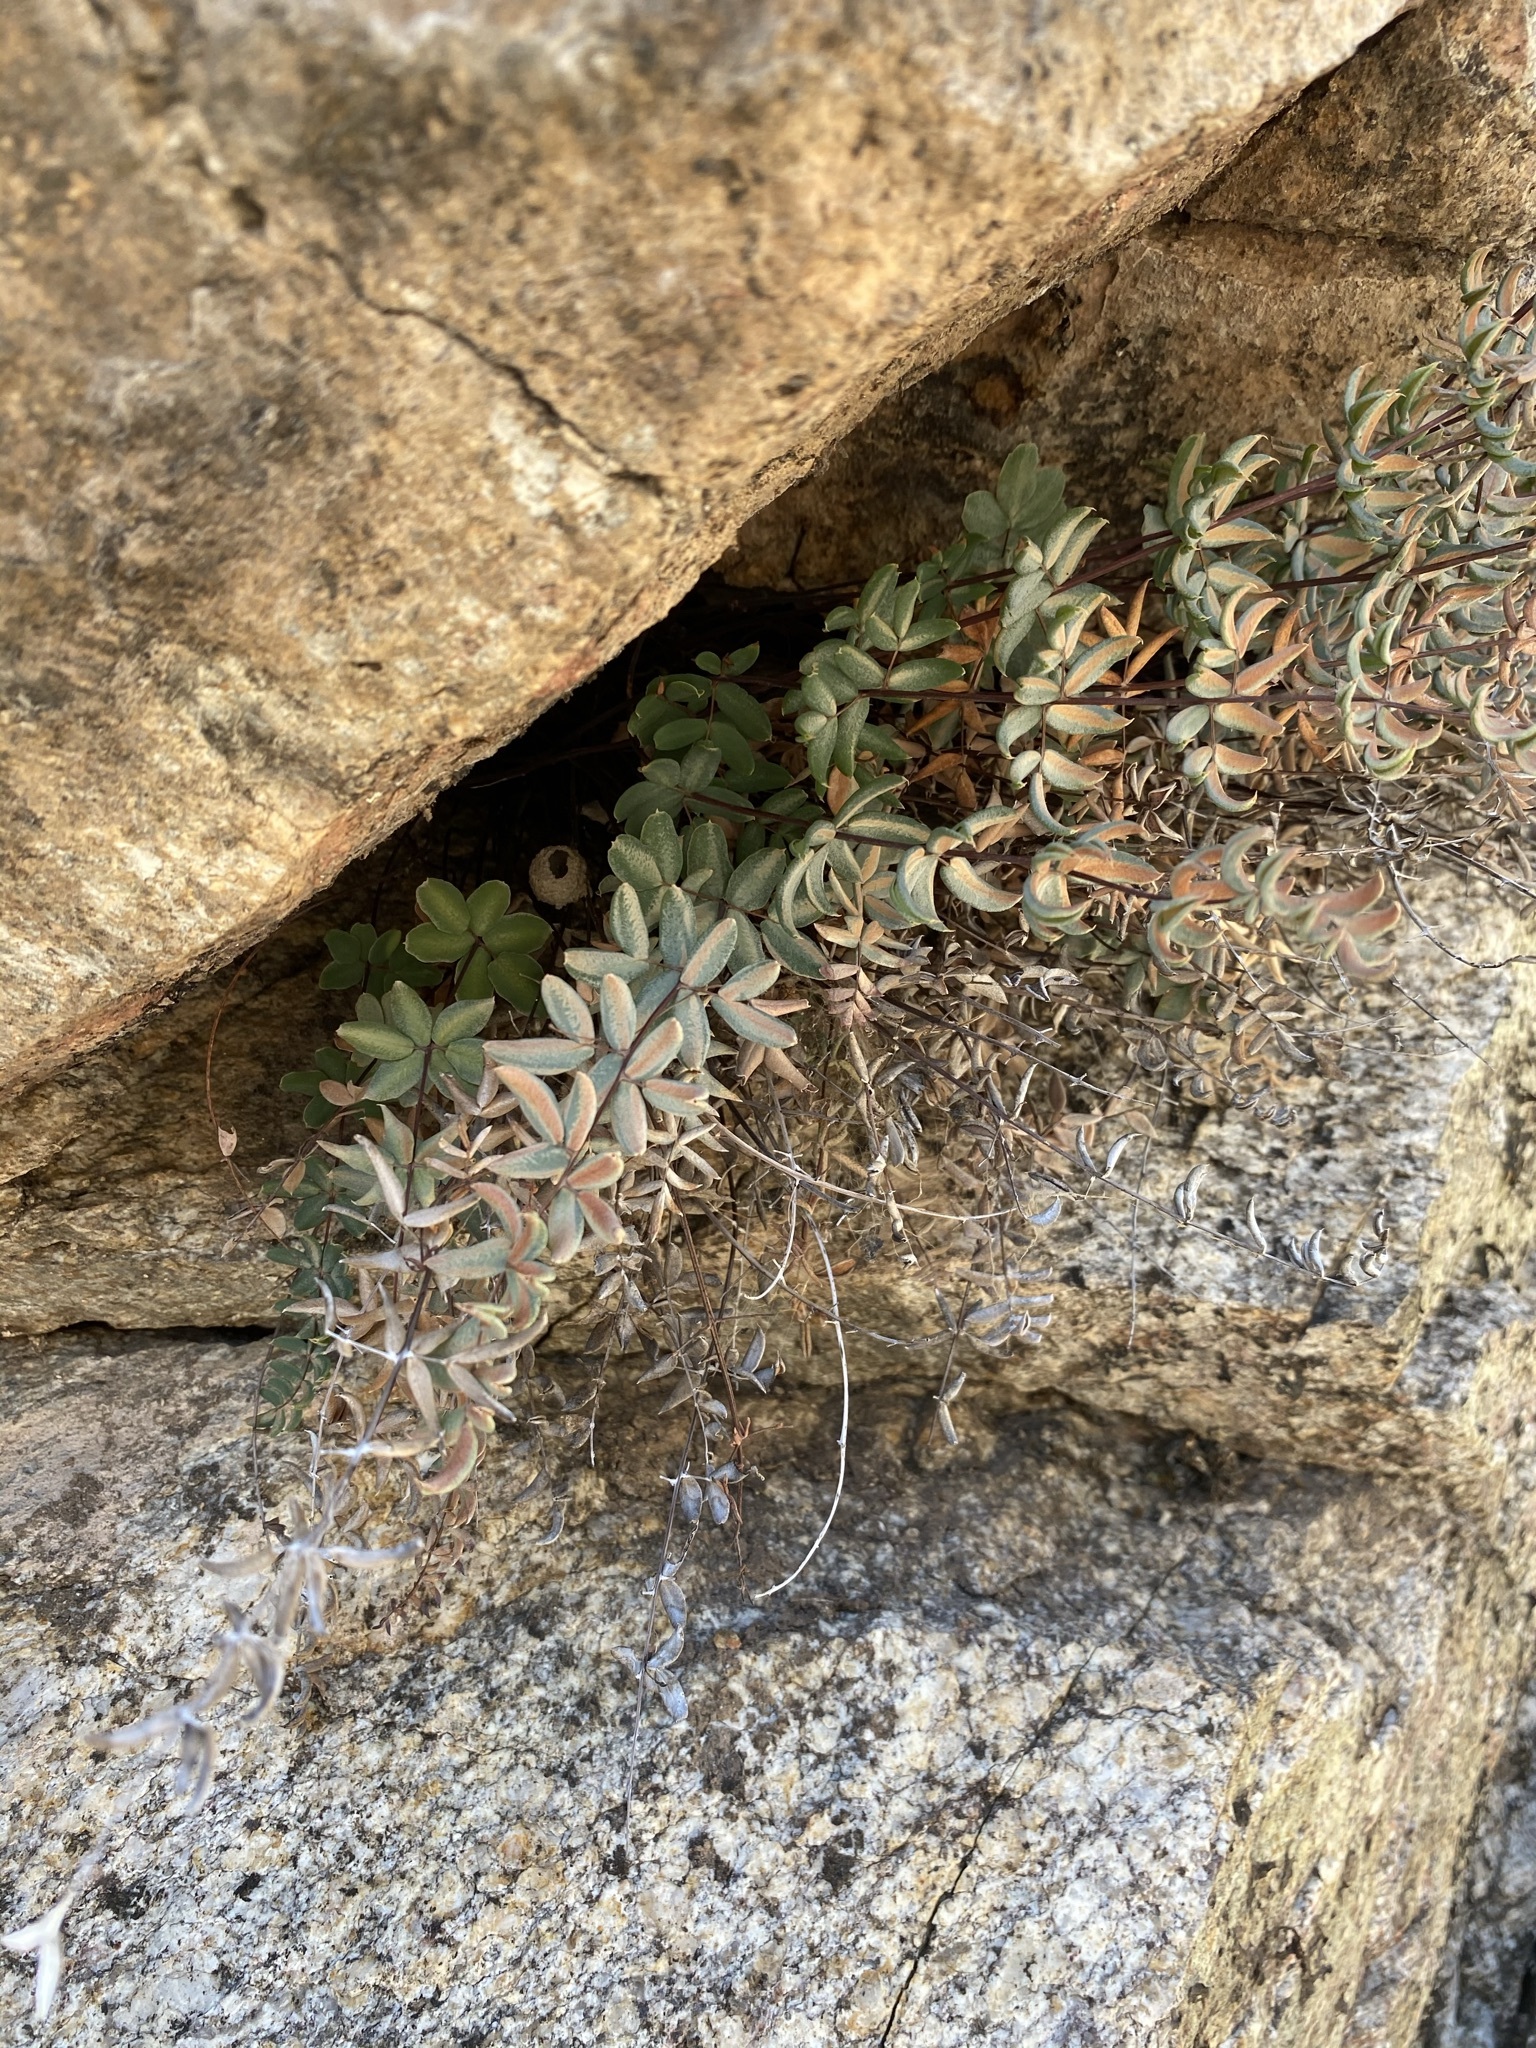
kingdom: Plantae
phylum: Tracheophyta
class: Polypodiopsida
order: Polypodiales
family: Pteridaceae
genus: Pellaea
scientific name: Pellaea wrightiana
